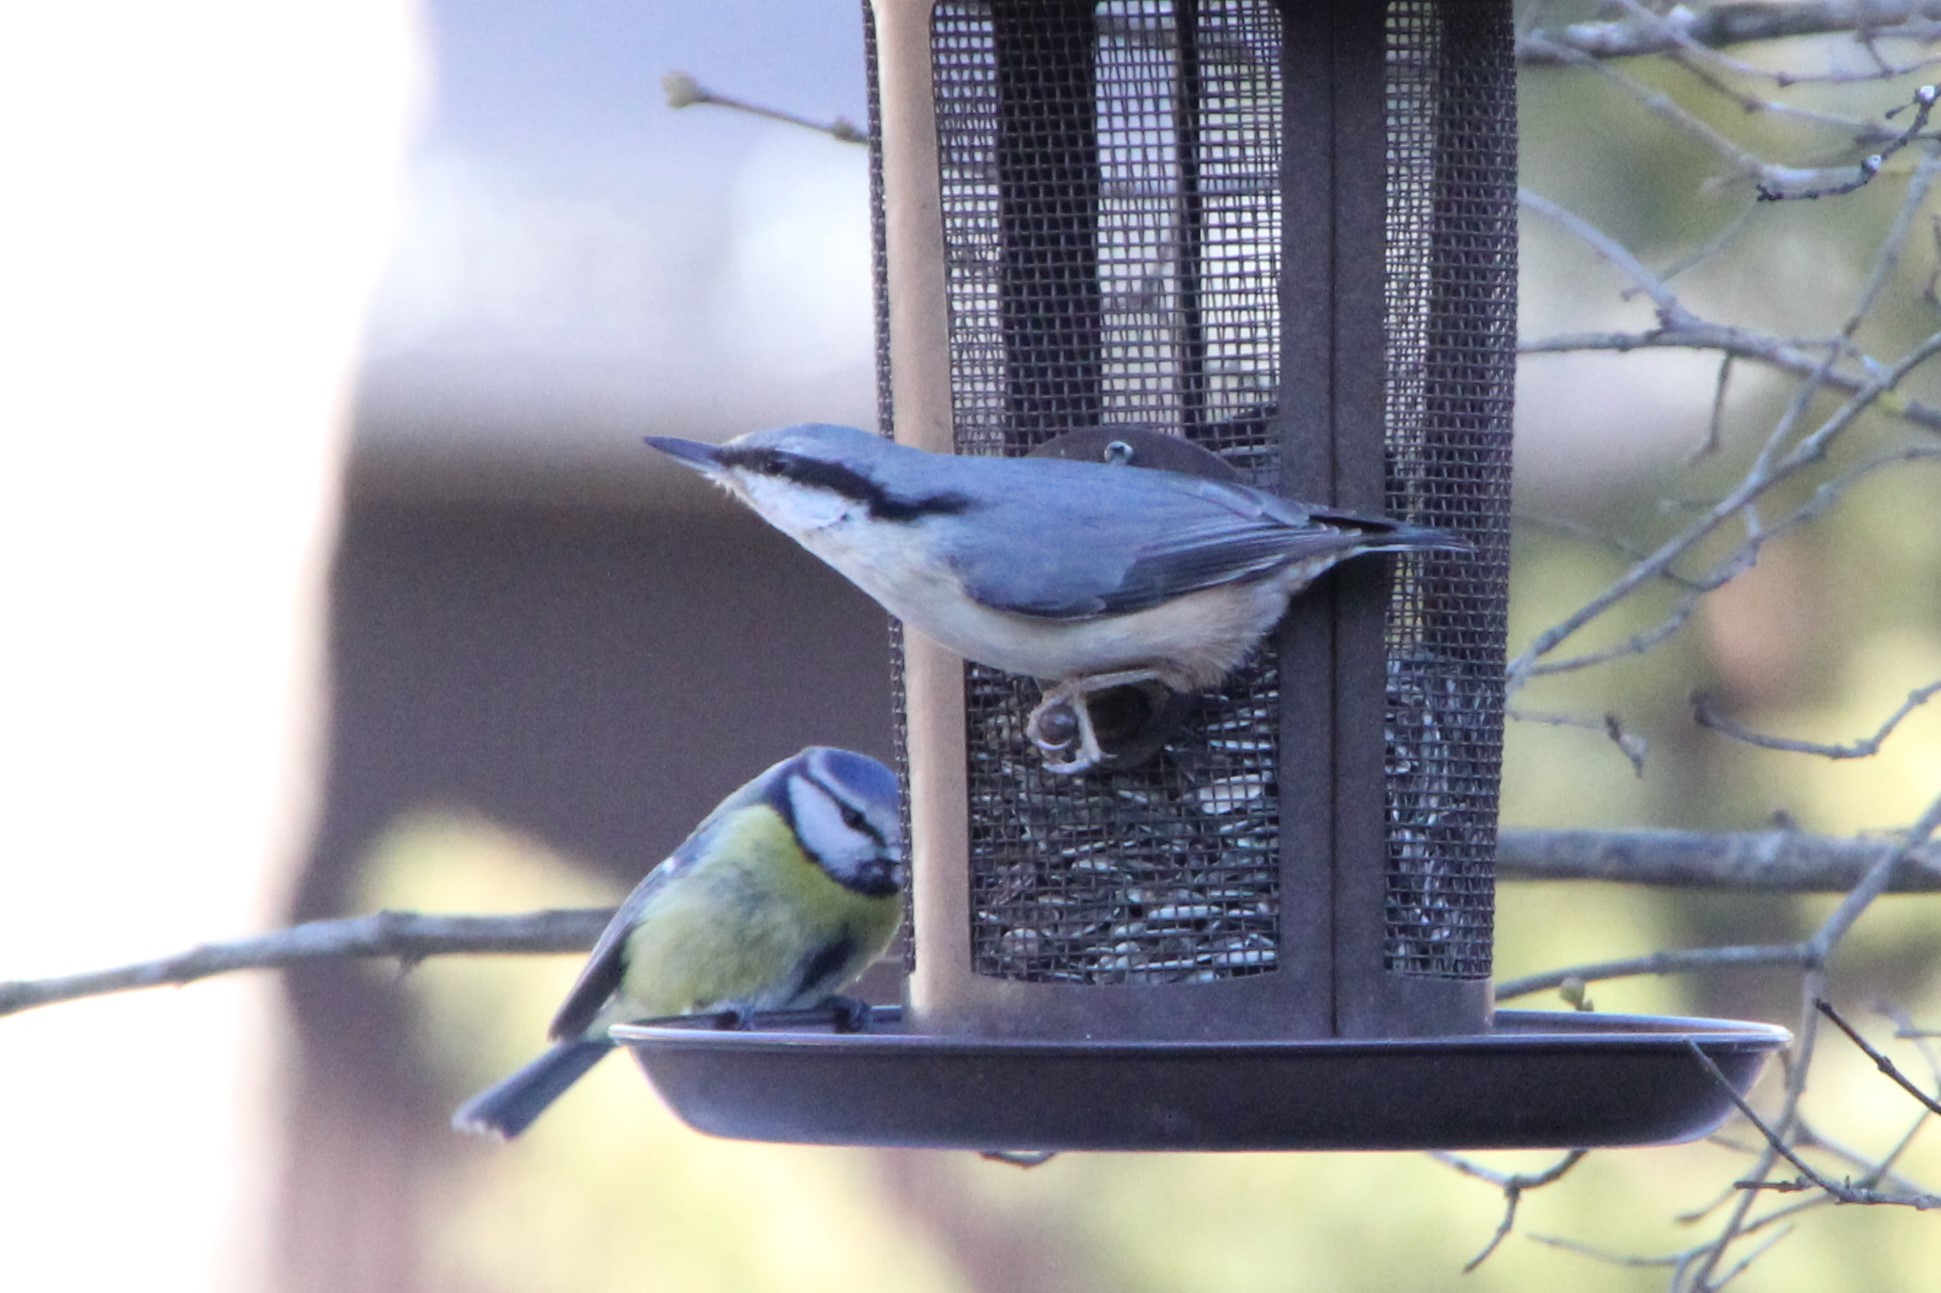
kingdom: Animalia
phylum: Chordata
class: Aves
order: Passeriformes
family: Sittidae
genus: Sitta
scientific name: Sitta europaea
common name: Eurasian nuthatch
